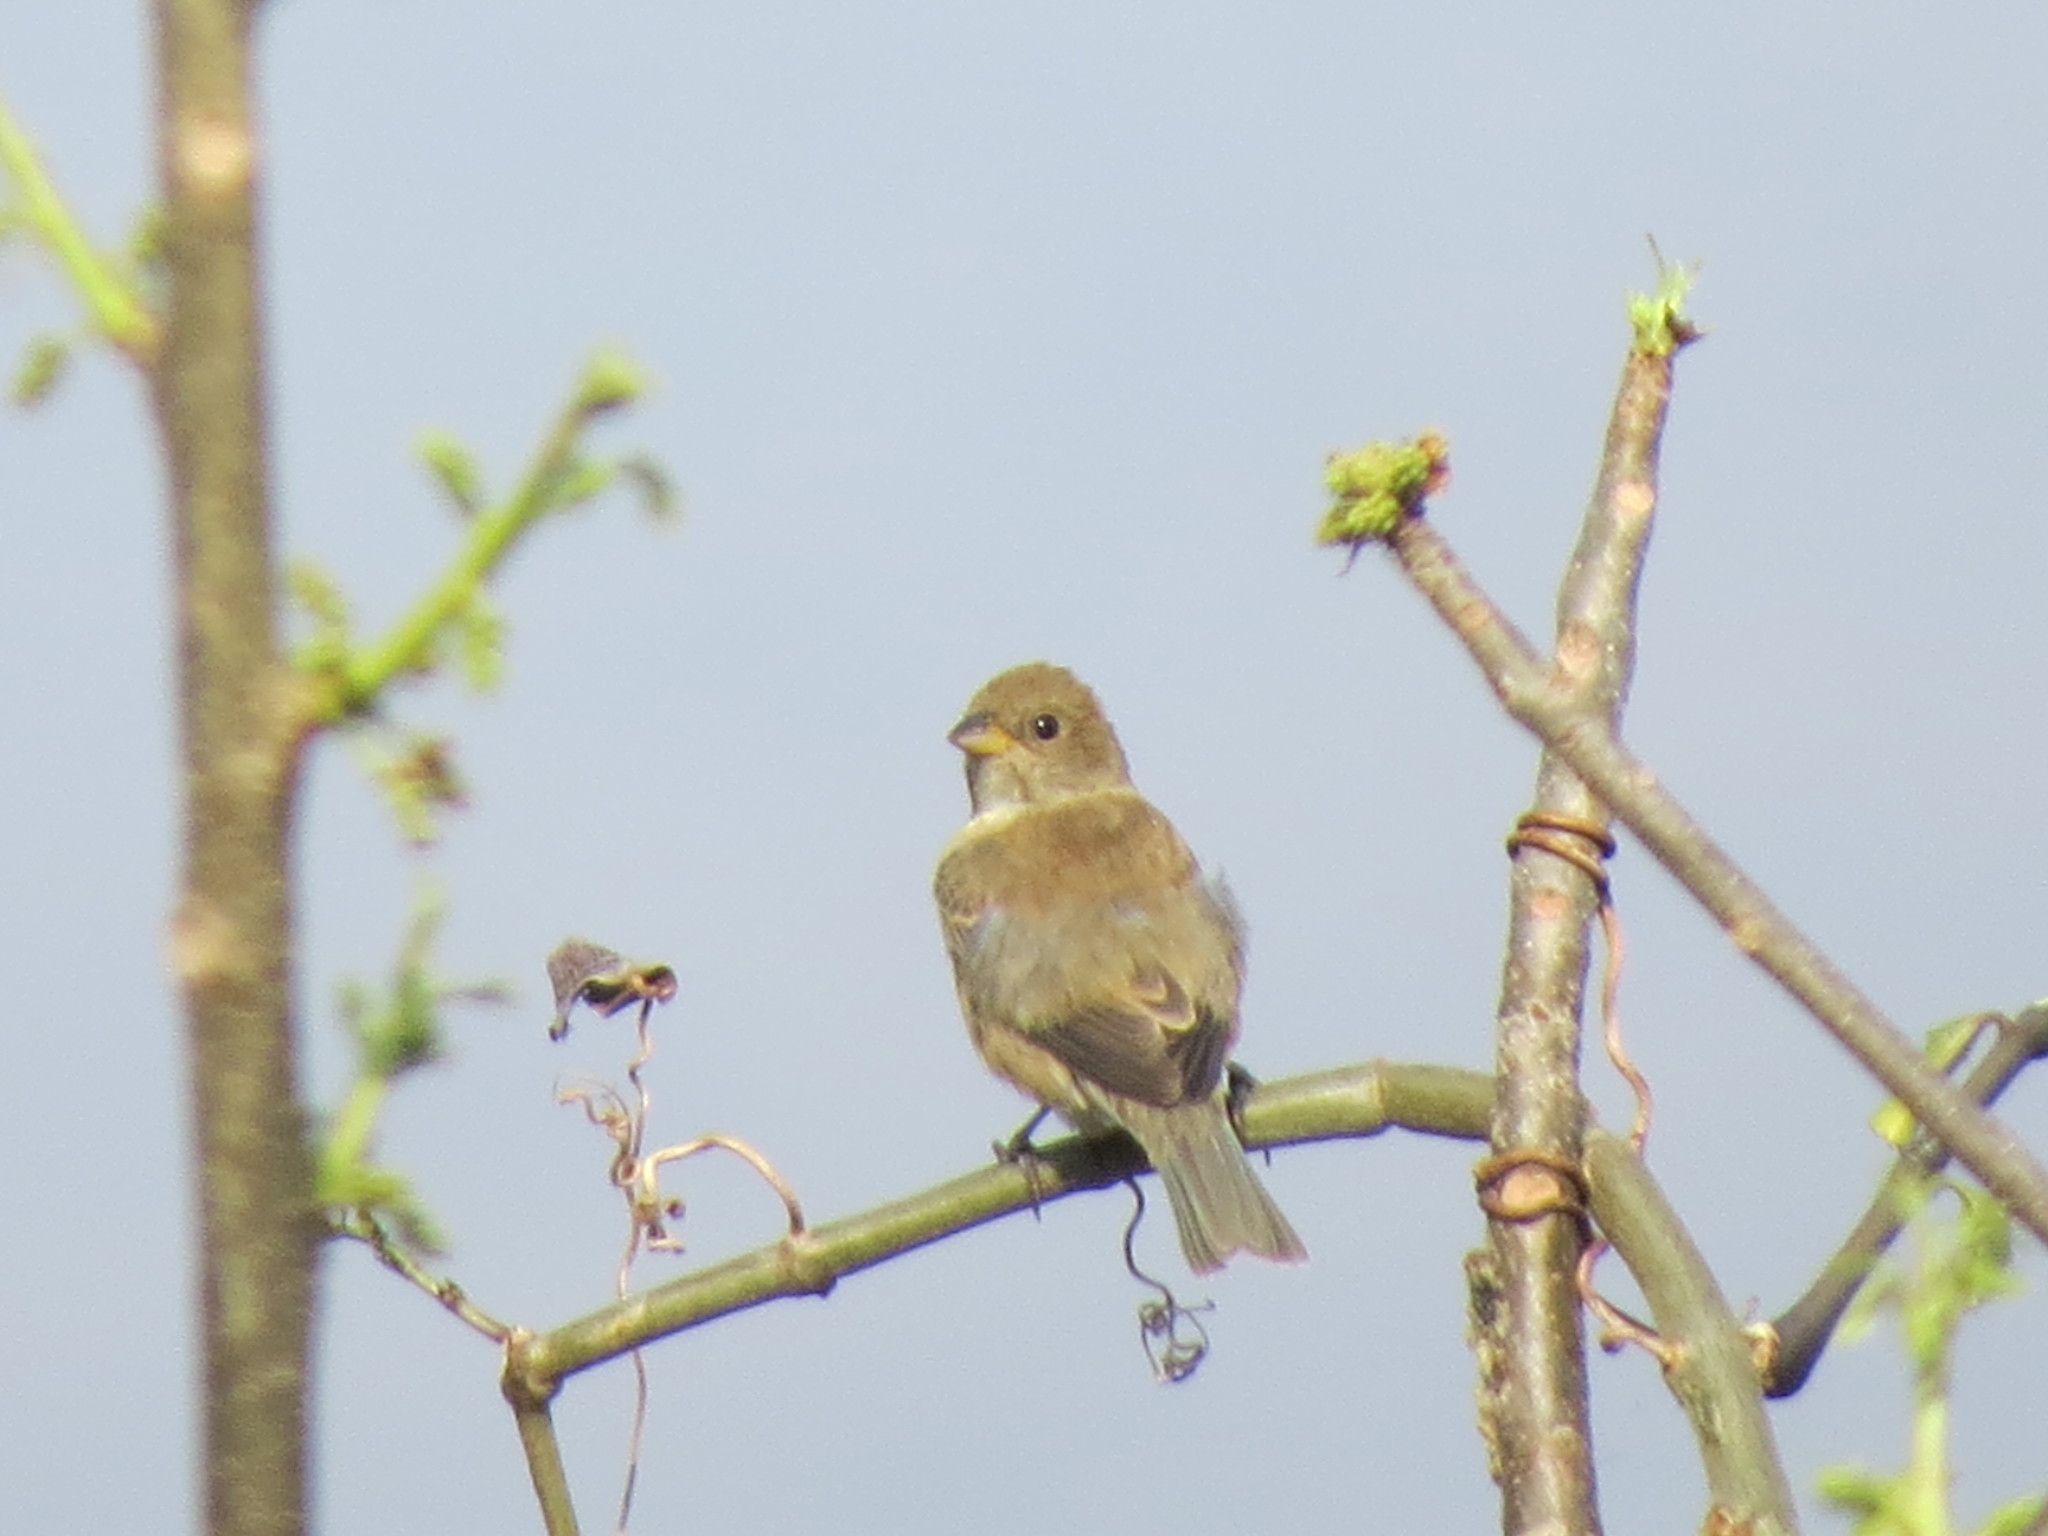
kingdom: Animalia
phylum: Chordata
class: Aves
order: Passeriformes
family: Cardinalidae
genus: Passerina
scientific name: Passerina cyanea
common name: Indigo bunting
